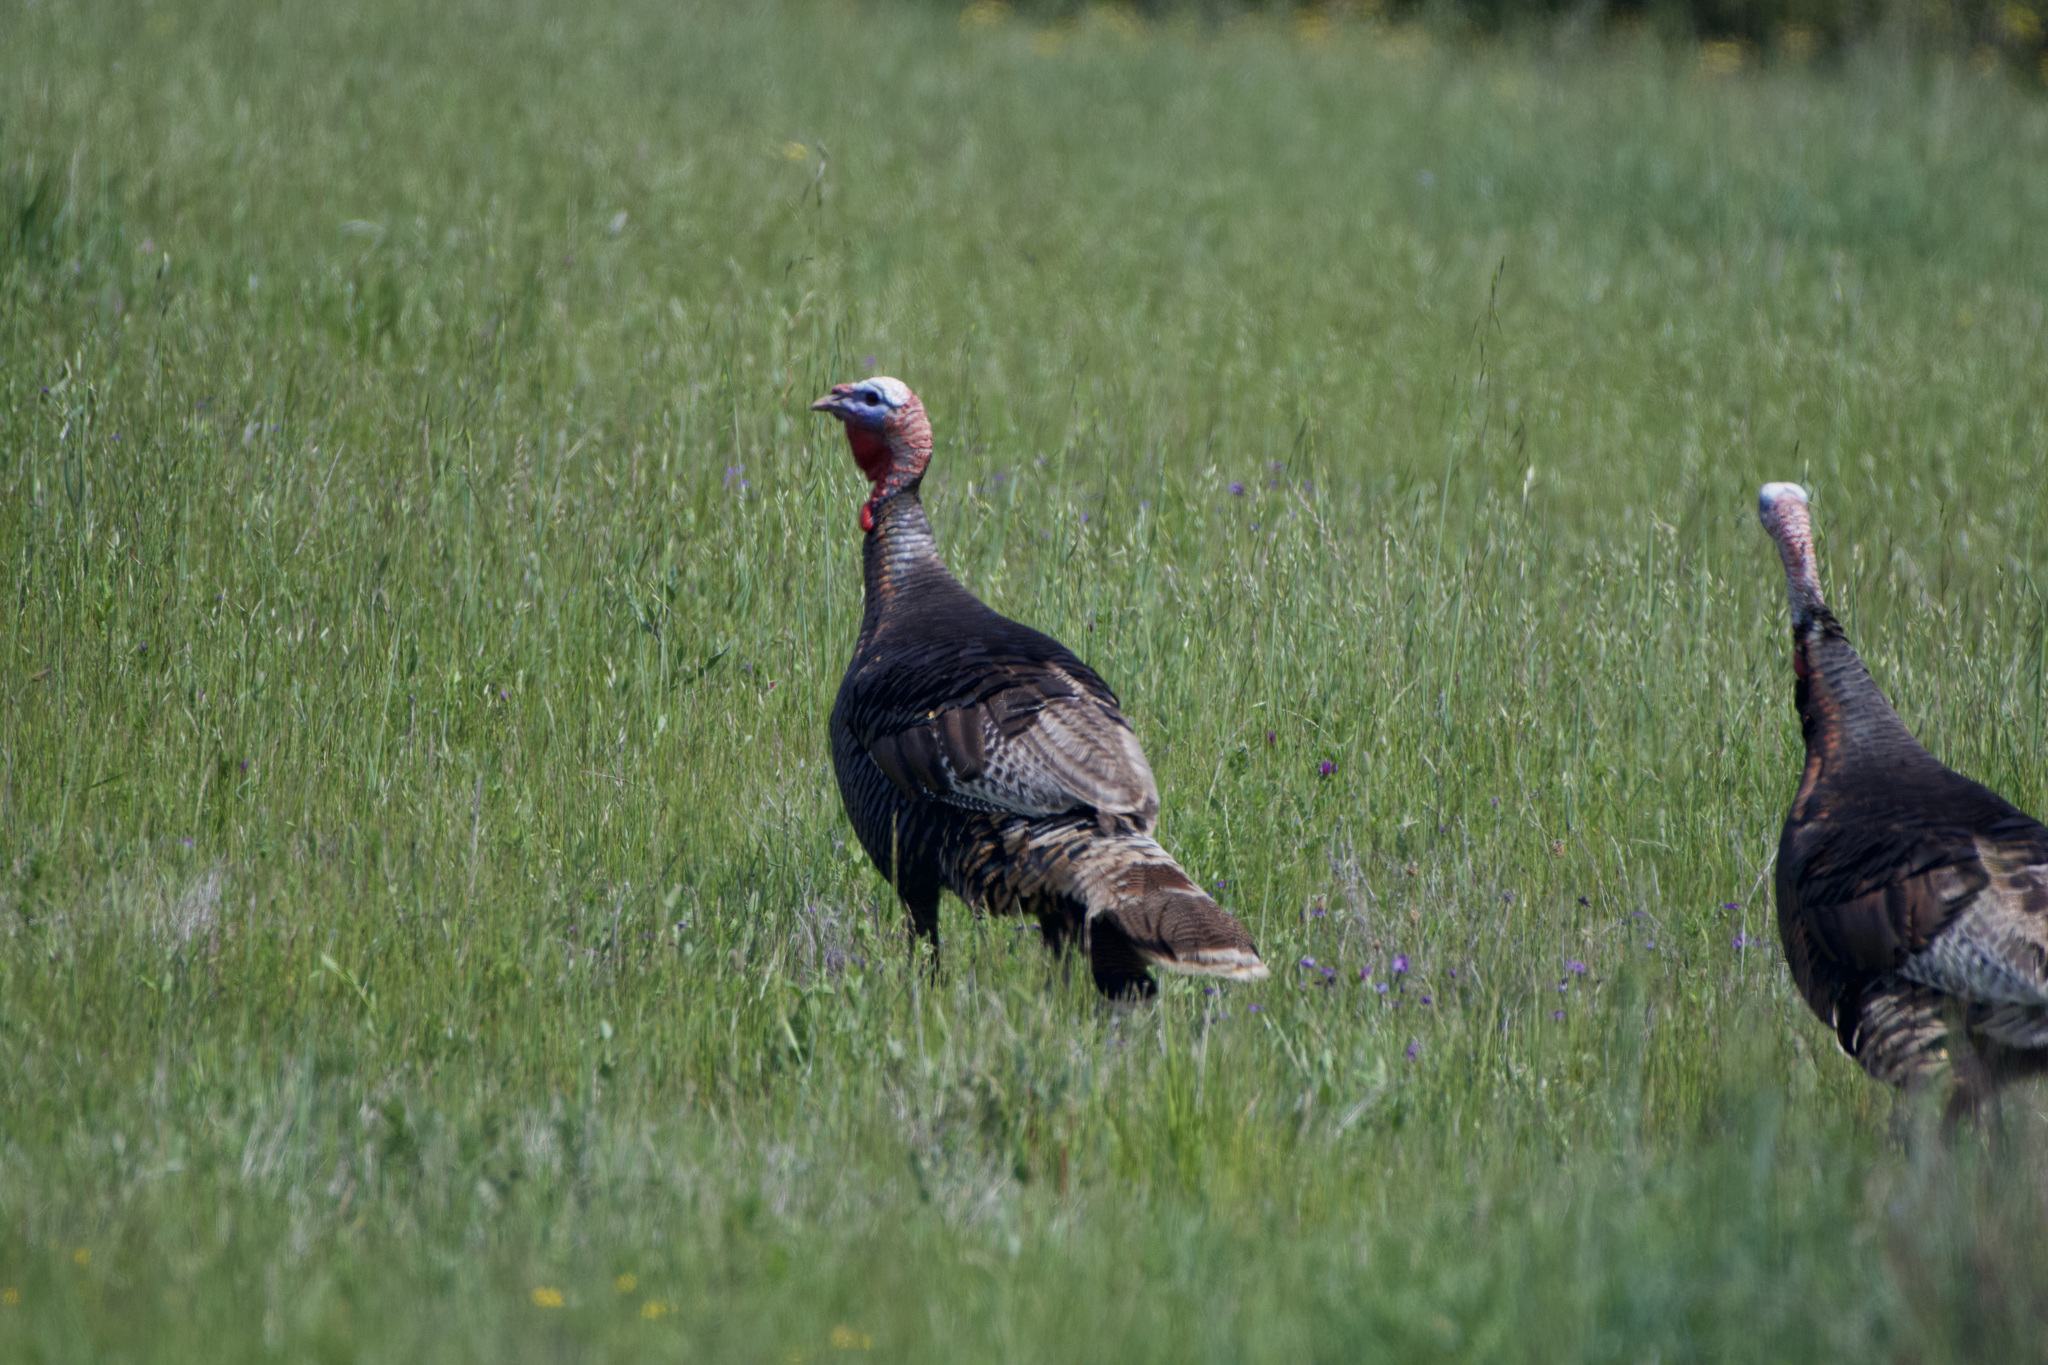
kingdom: Animalia
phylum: Chordata
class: Aves
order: Galliformes
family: Phasianidae
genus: Meleagris
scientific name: Meleagris gallopavo
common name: Wild turkey
